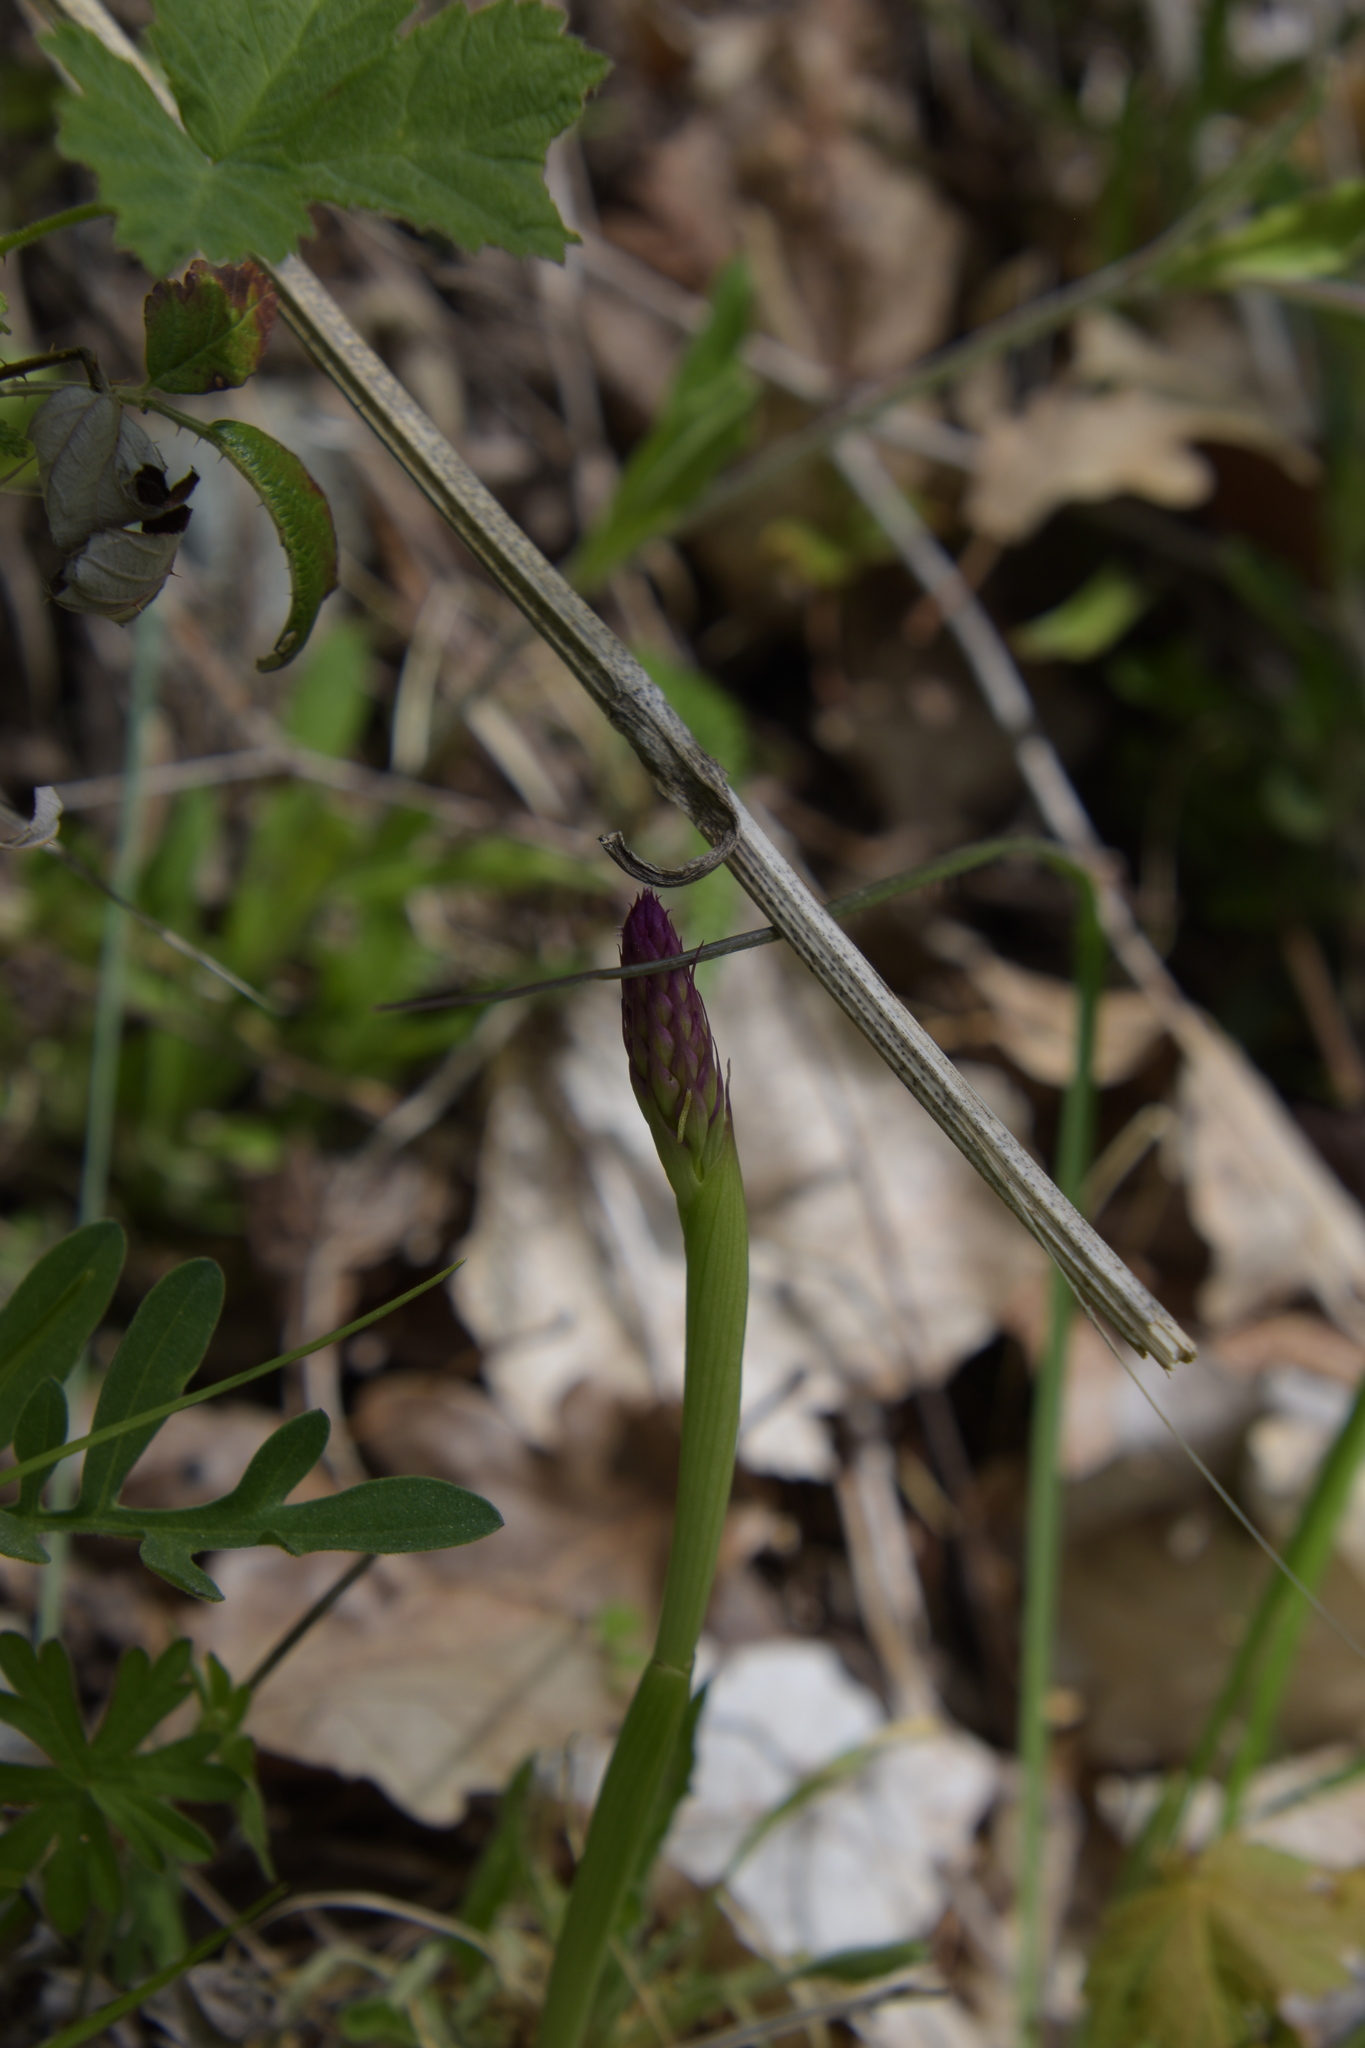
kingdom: Plantae
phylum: Tracheophyta
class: Liliopsida
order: Asparagales
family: Orchidaceae
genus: Anacamptis
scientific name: Anacamptis pyramidalis
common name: Pyramidal orchid
